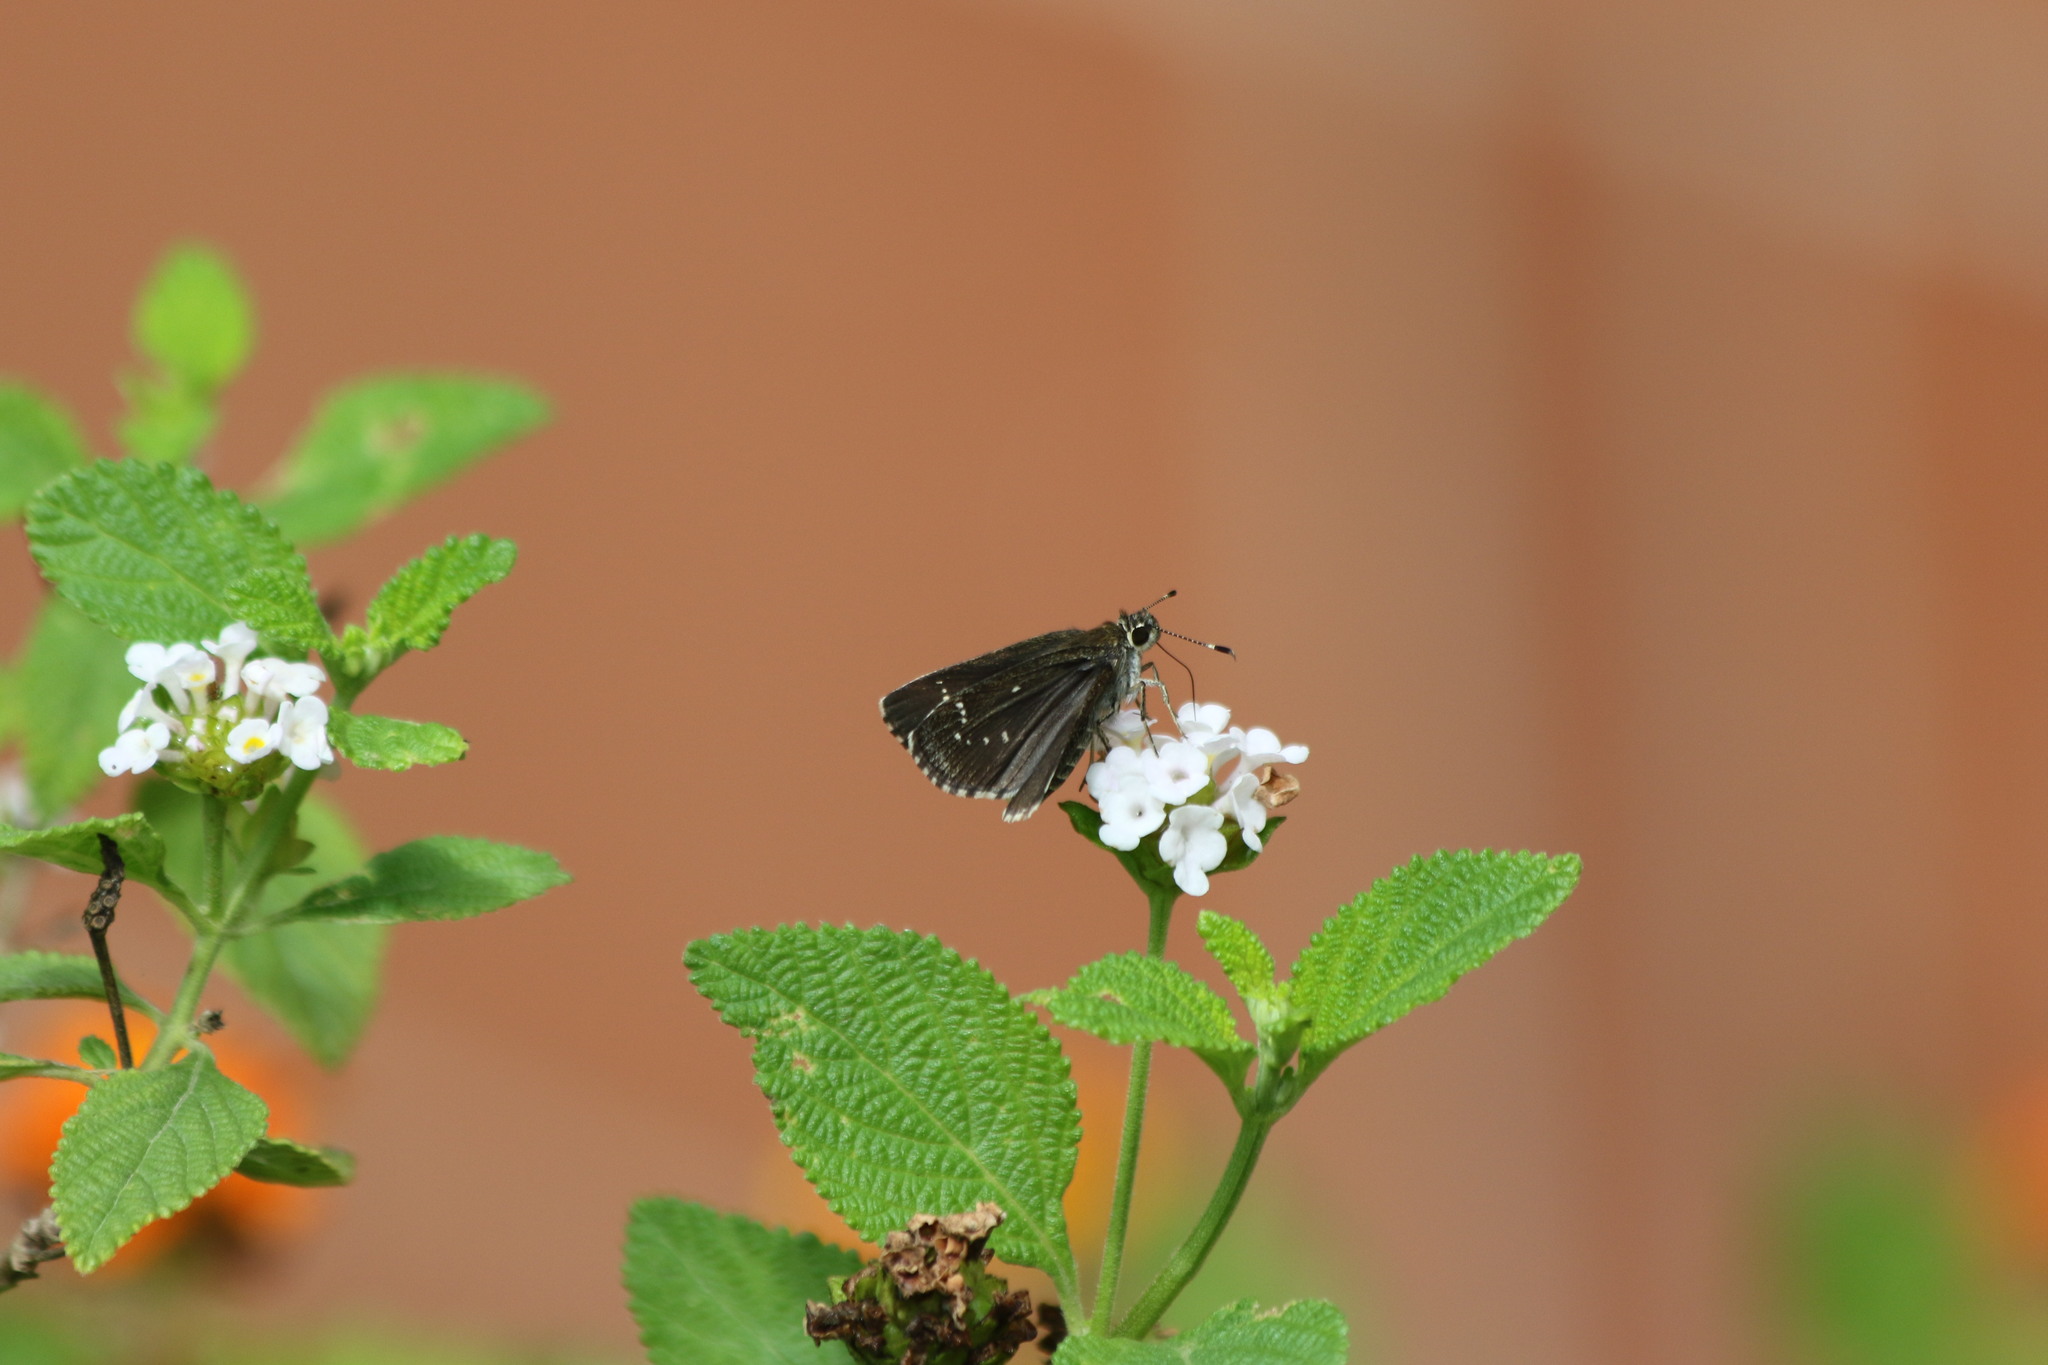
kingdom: Animalia
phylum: Arthropoda
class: Insecta
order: Lepidoptera
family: Hesperiidae
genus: Mastor
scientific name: Mastor celia
